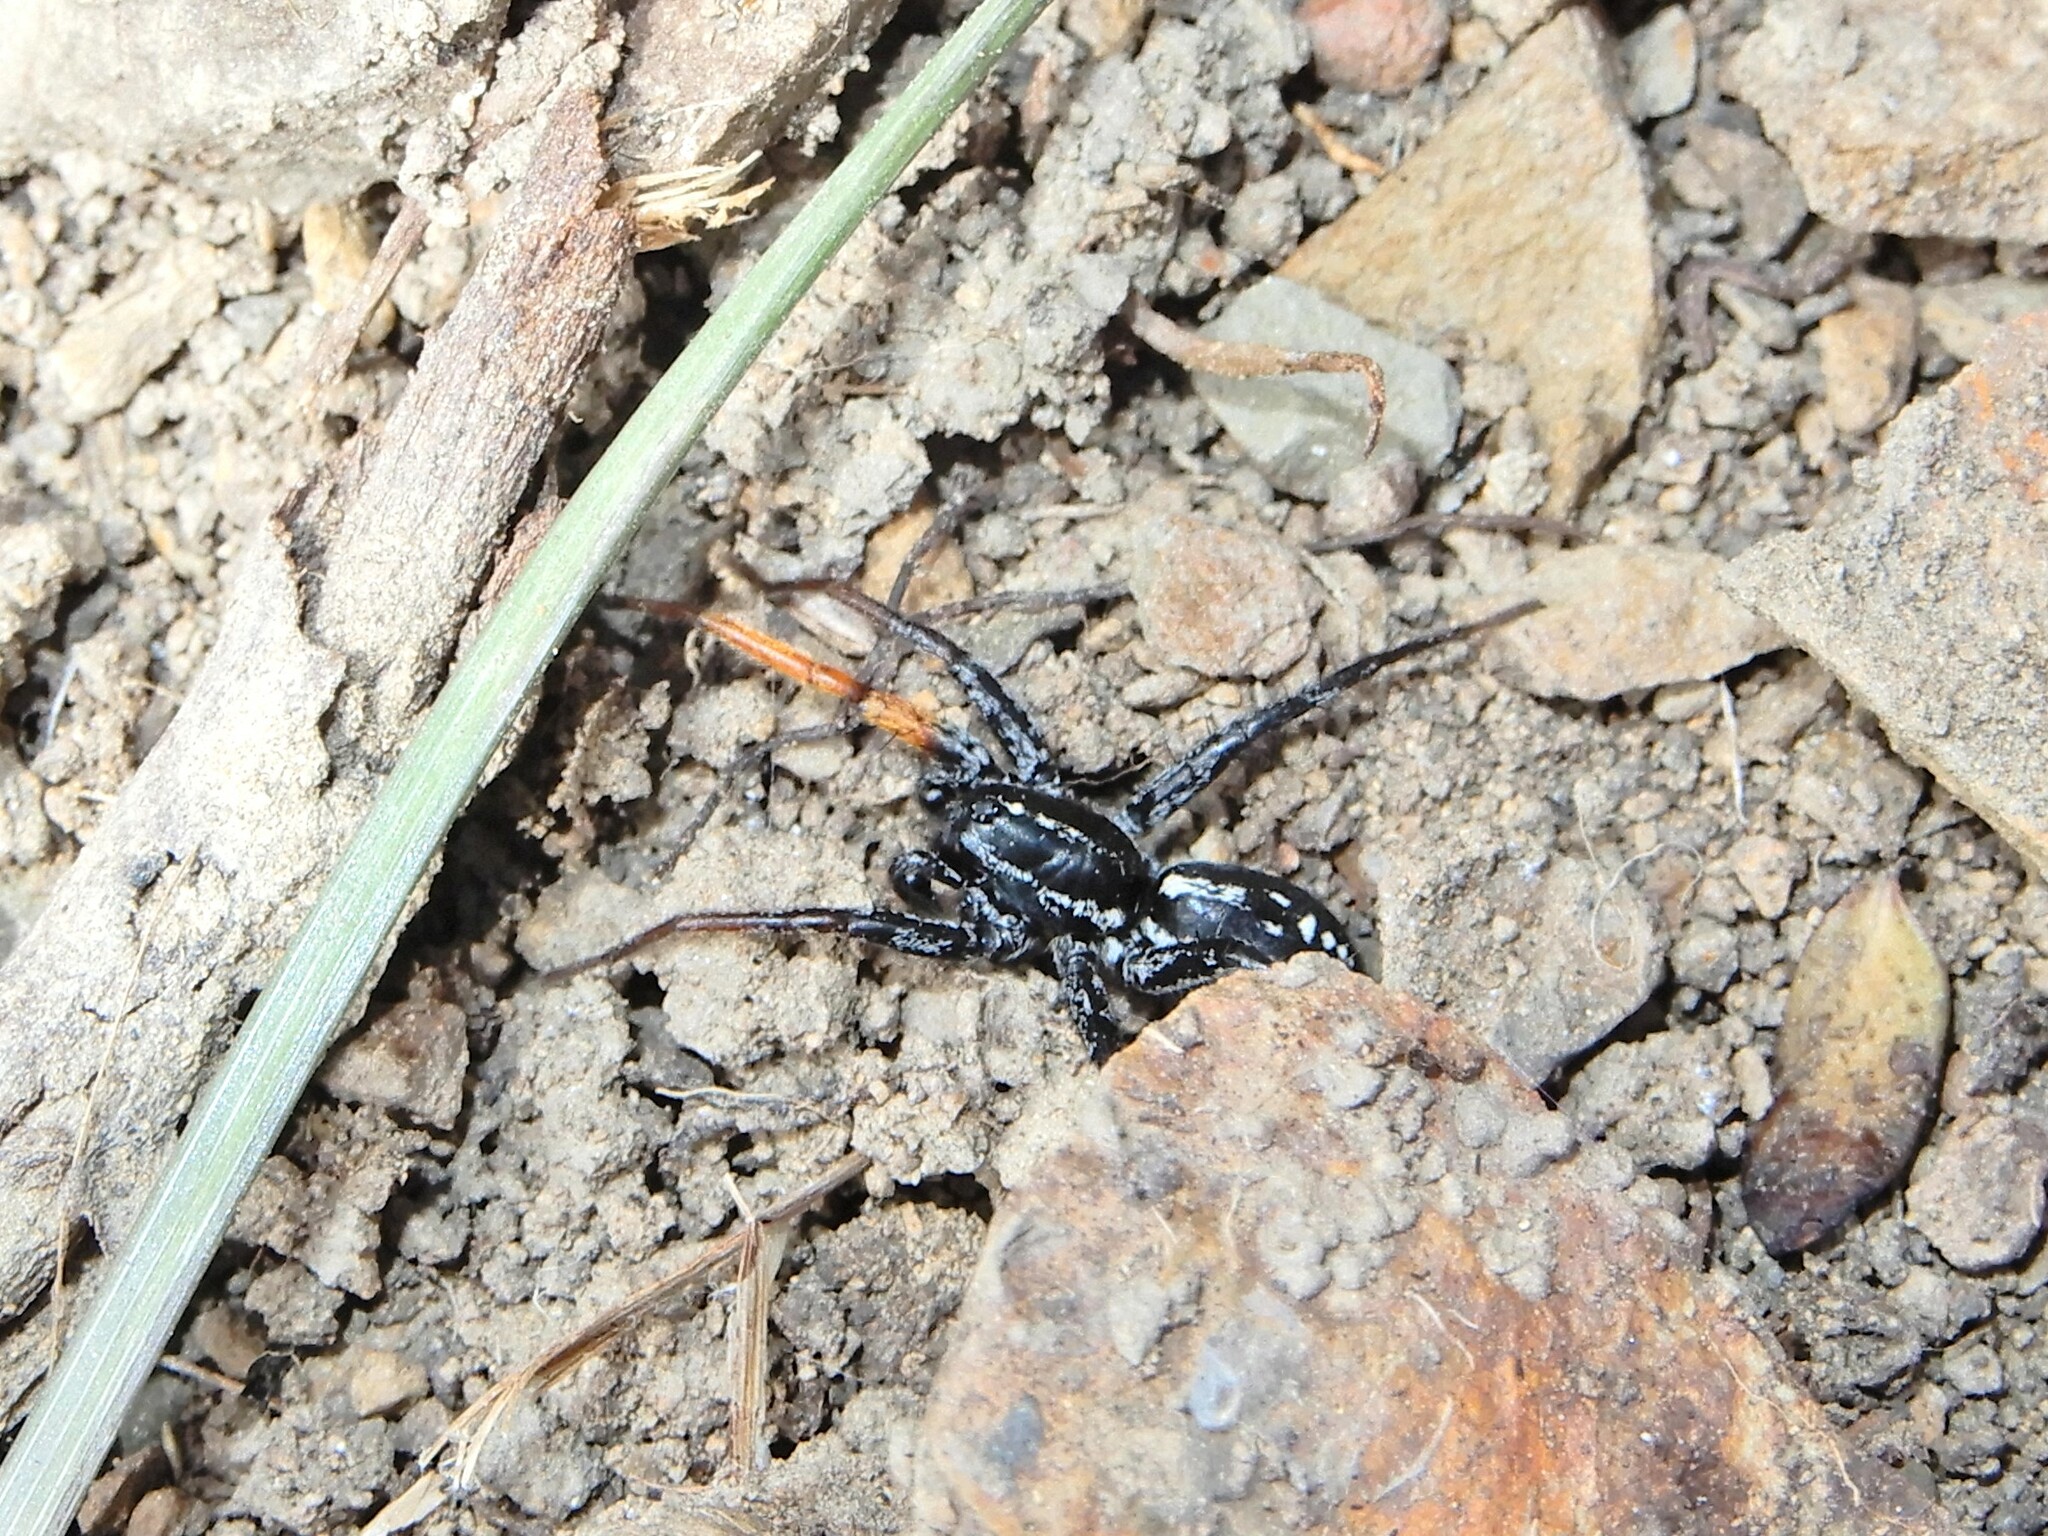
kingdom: Animalia
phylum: Arthropoda
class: Arachnida
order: Araneae
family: Corinnidae
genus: Nyssus
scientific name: Nyssus coloripes
